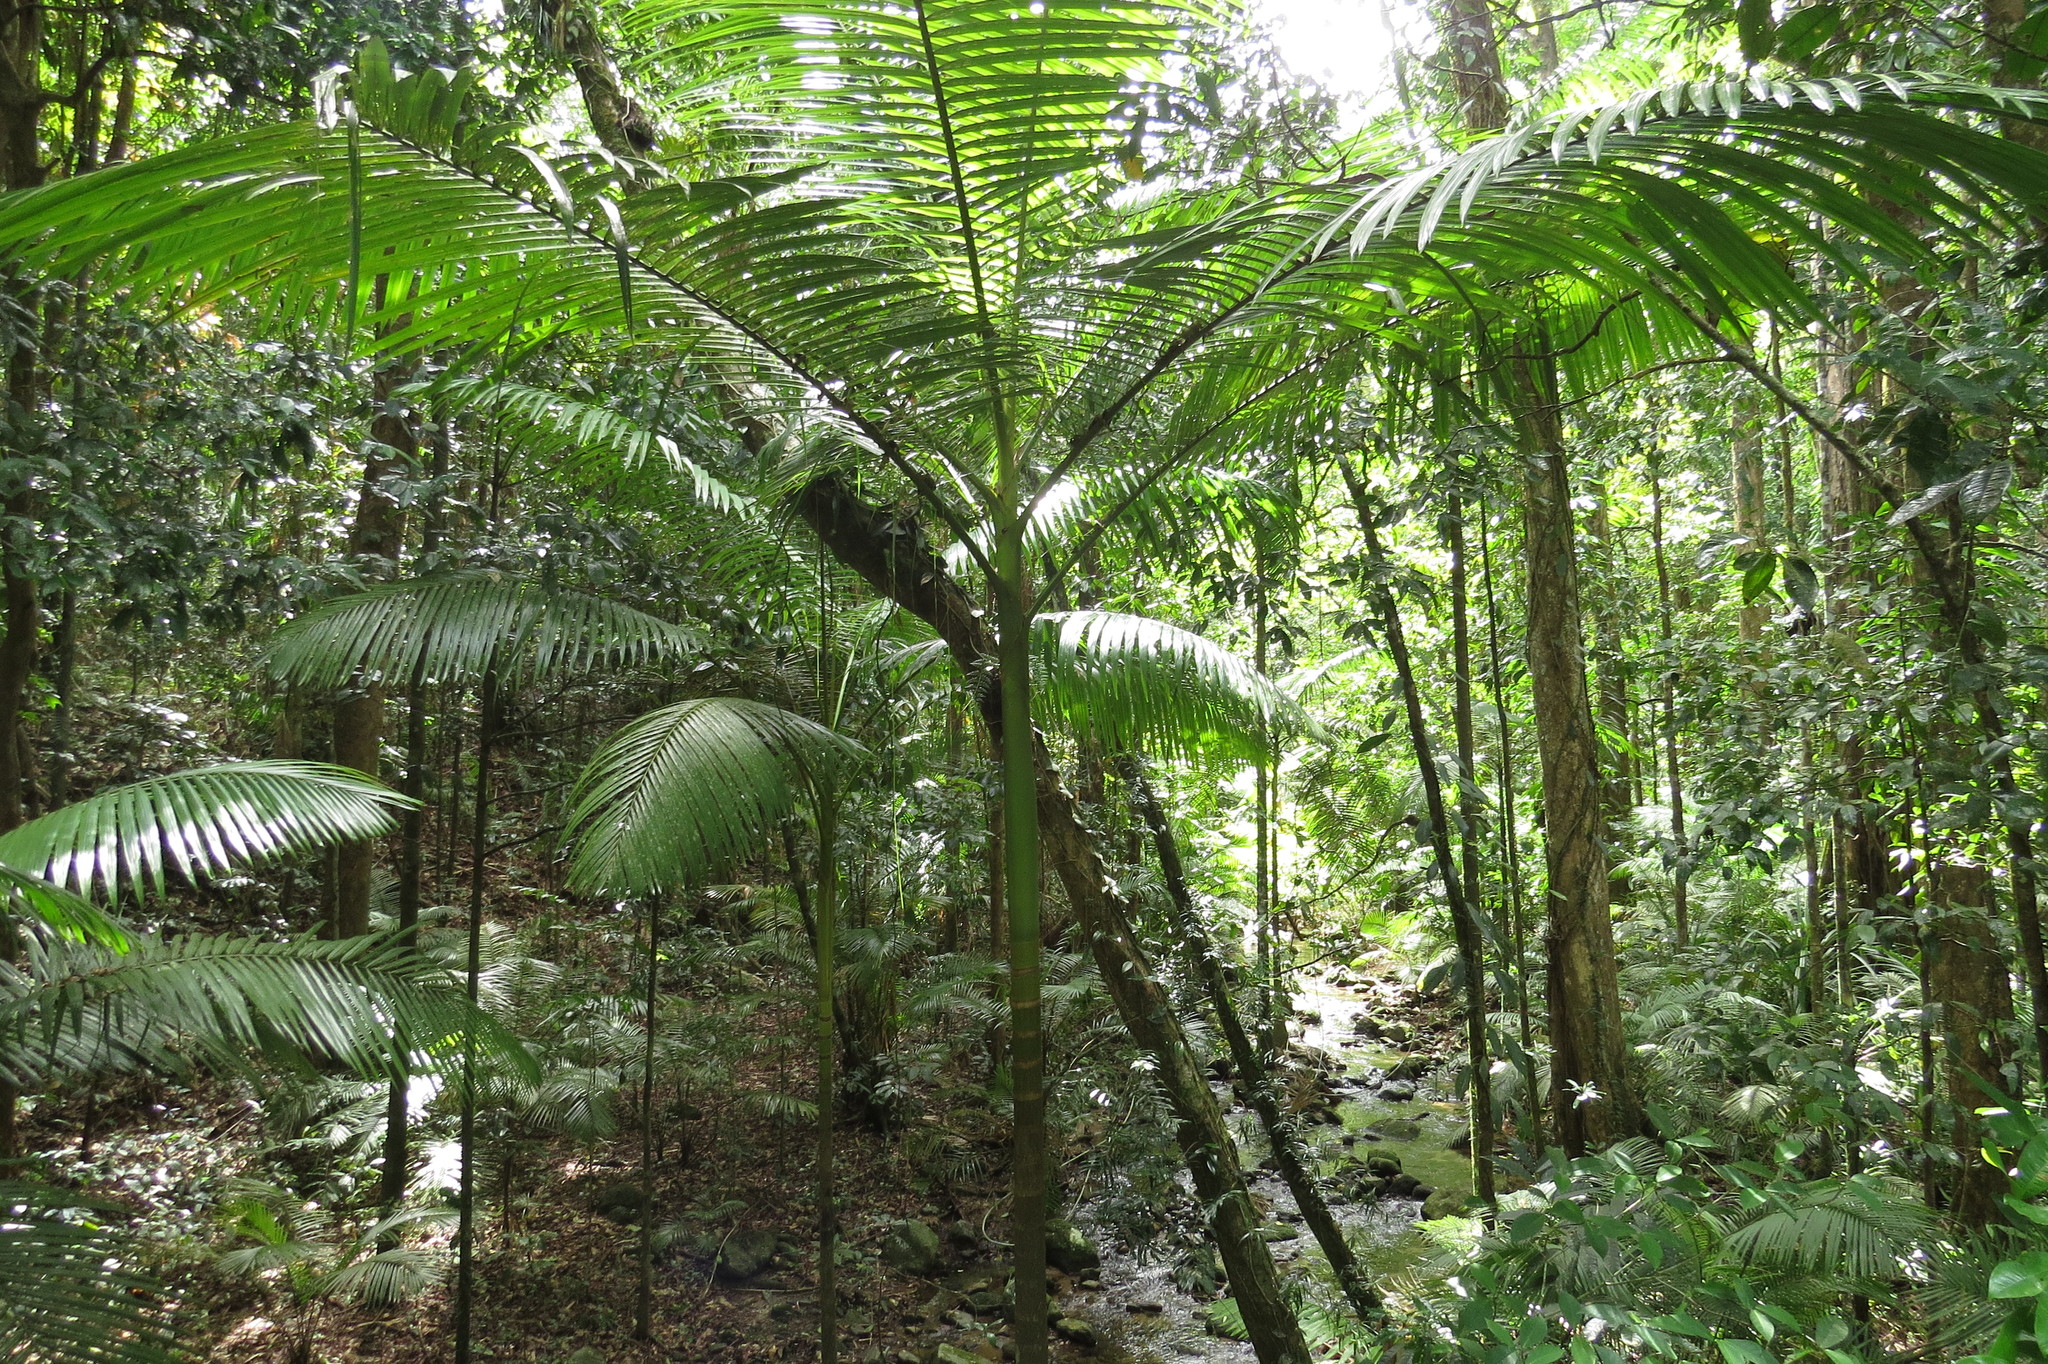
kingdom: Plantae
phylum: Tracheophyta
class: Liliopsida
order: Arecales
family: Arecaceae
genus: Archontophoenix
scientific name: Archontophoenix alexandrae
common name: Alexandra palm
